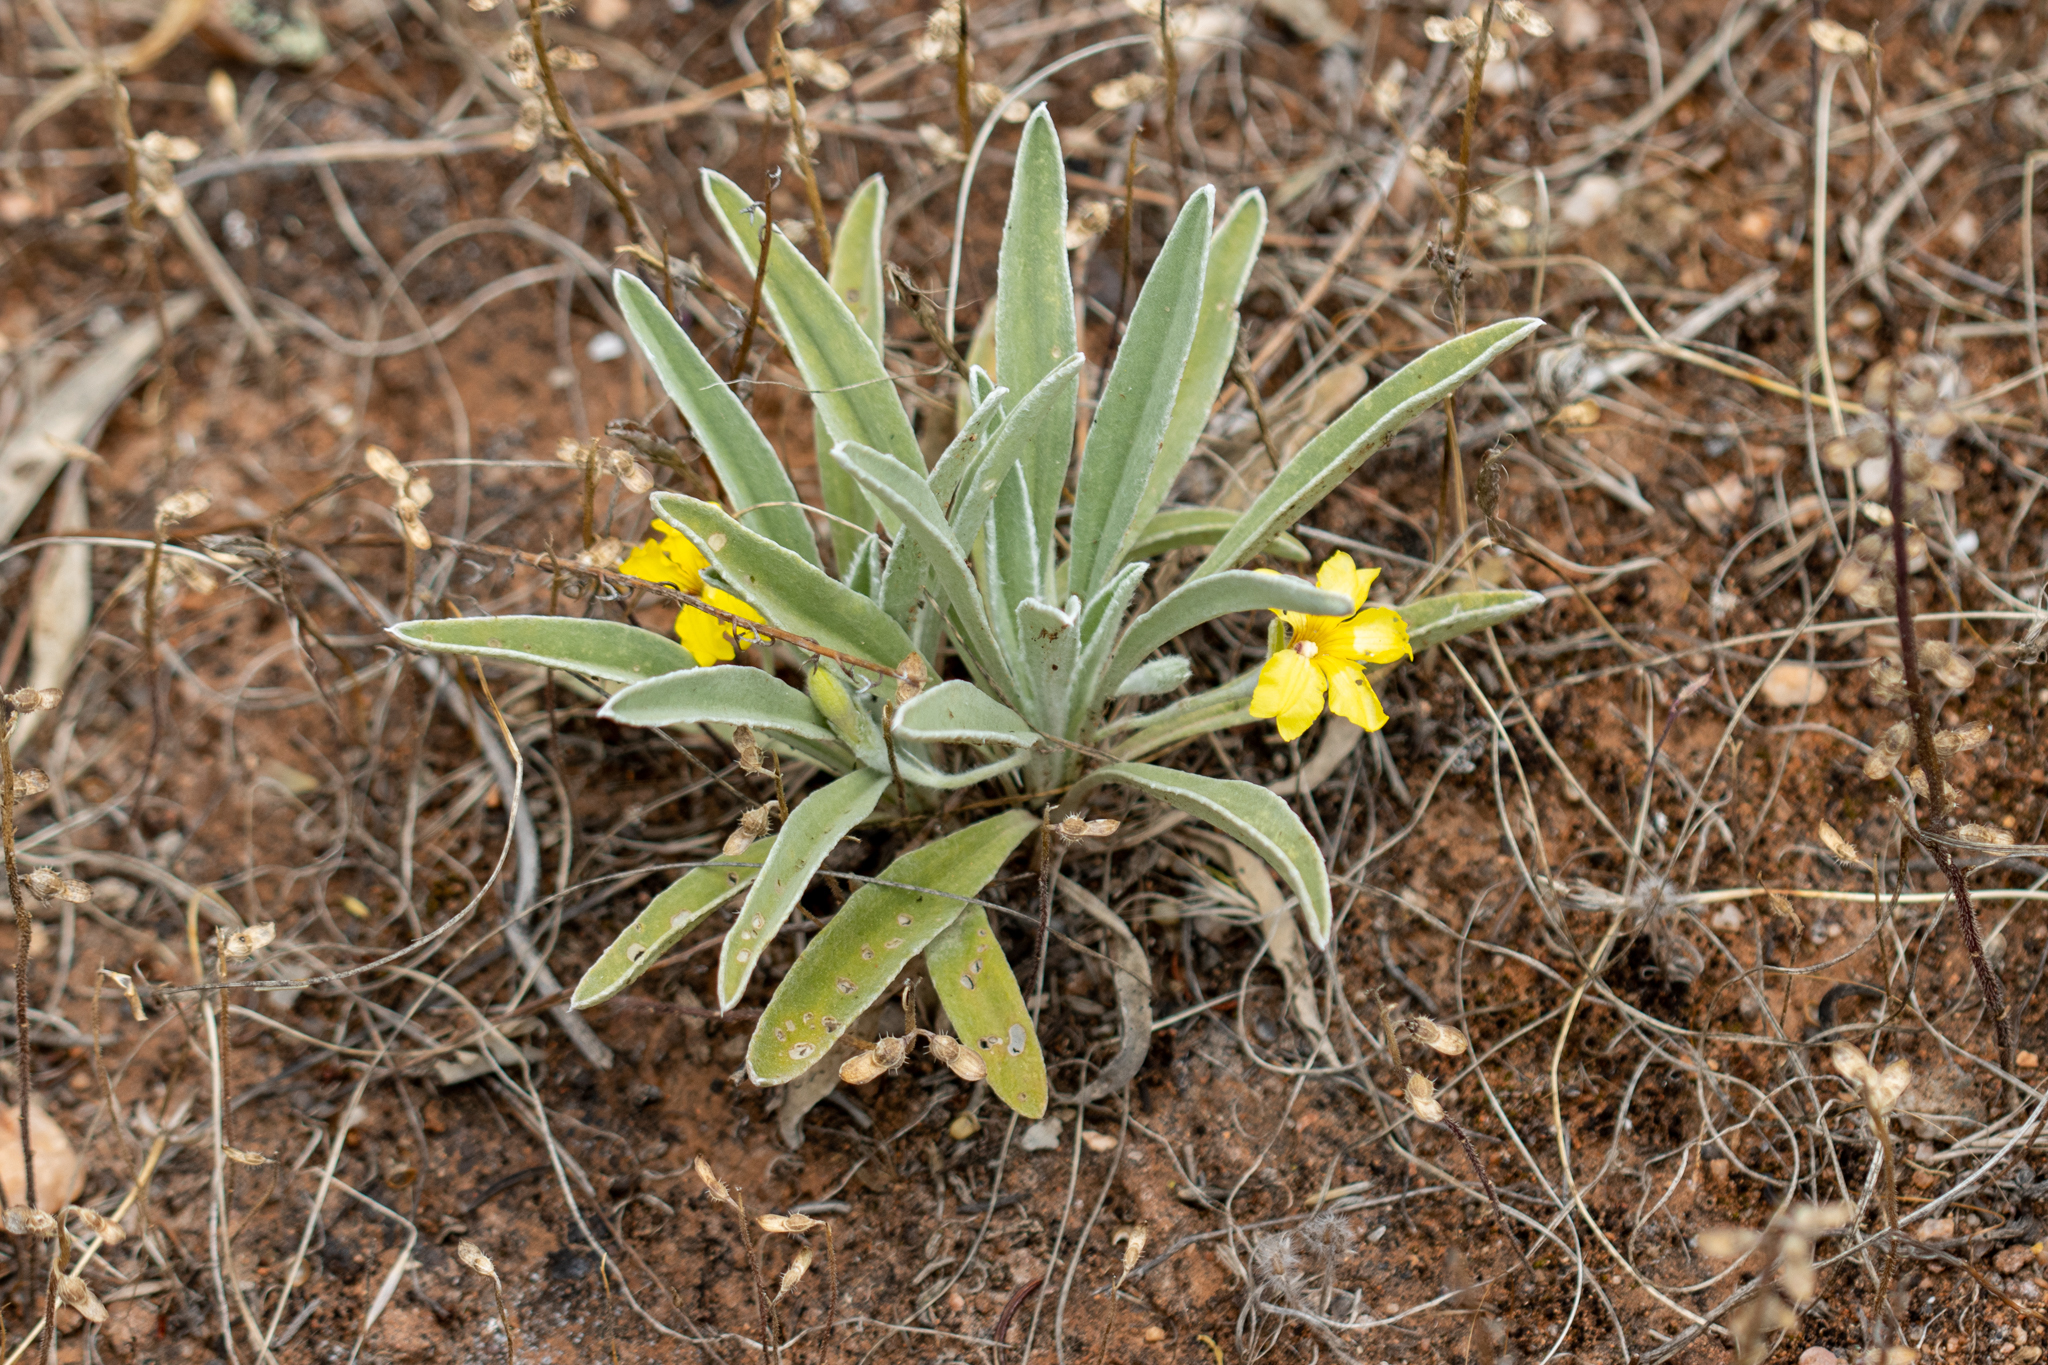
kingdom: Plantae
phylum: Tracheophyta
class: Magnoliopsida
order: Asterales
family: Goodeniaceae
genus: Goodenia
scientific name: Goodenia willisiana
